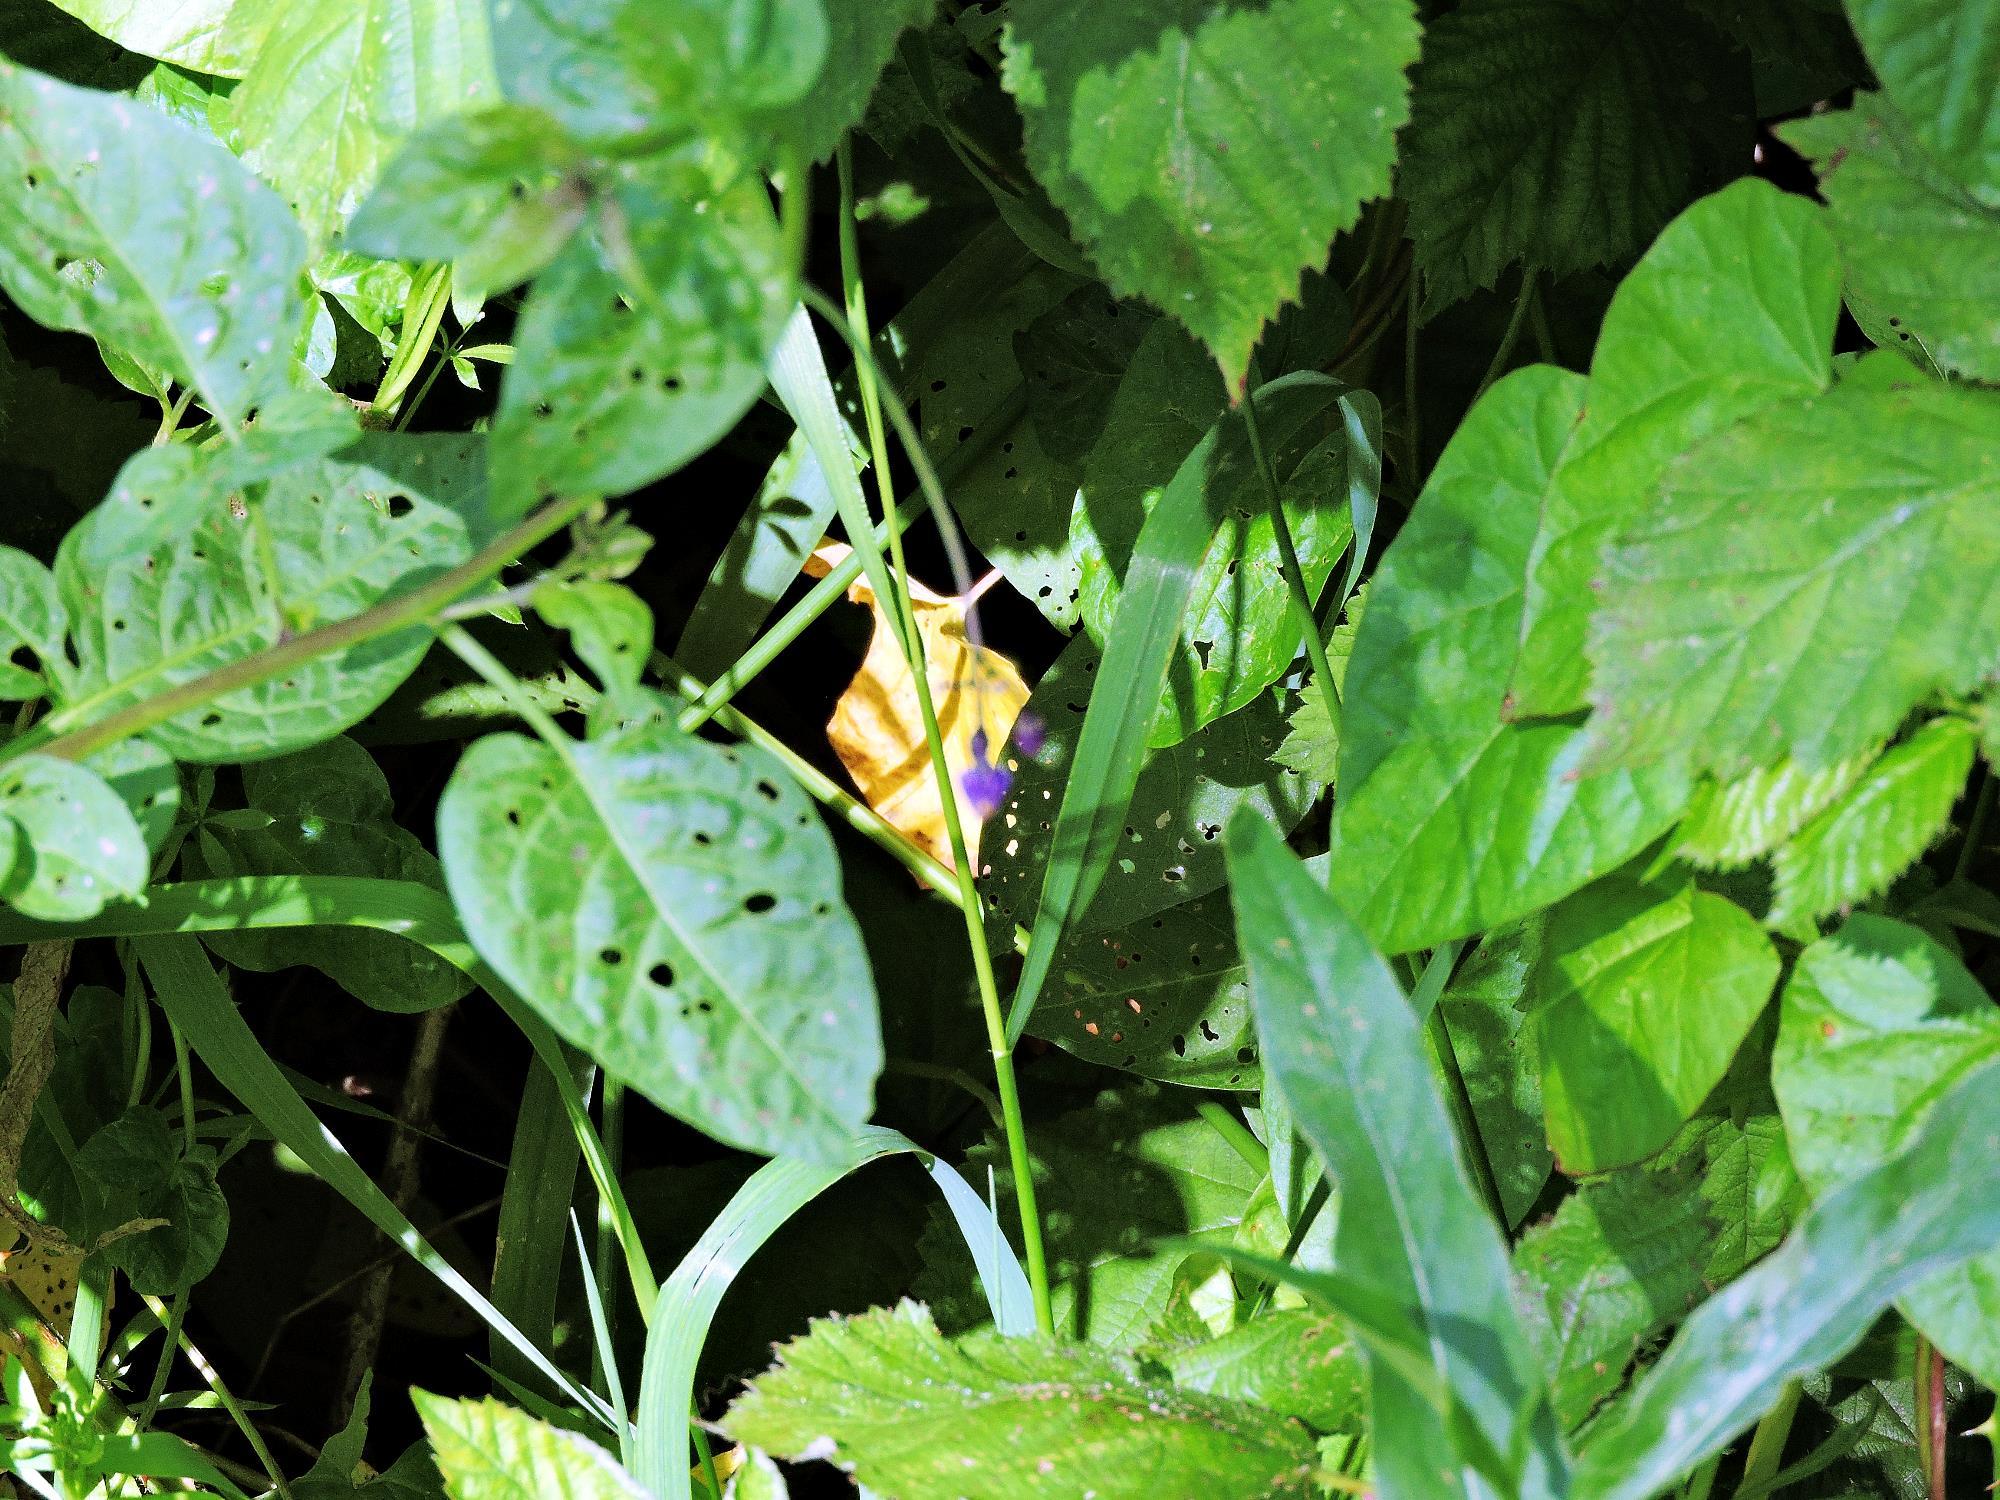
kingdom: Plantae
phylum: Tracheophyta
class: Magnoliopsida
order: Solanales
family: Solanaceae
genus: Solanum
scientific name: Solanum dulcamara
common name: Climbing nightshade
